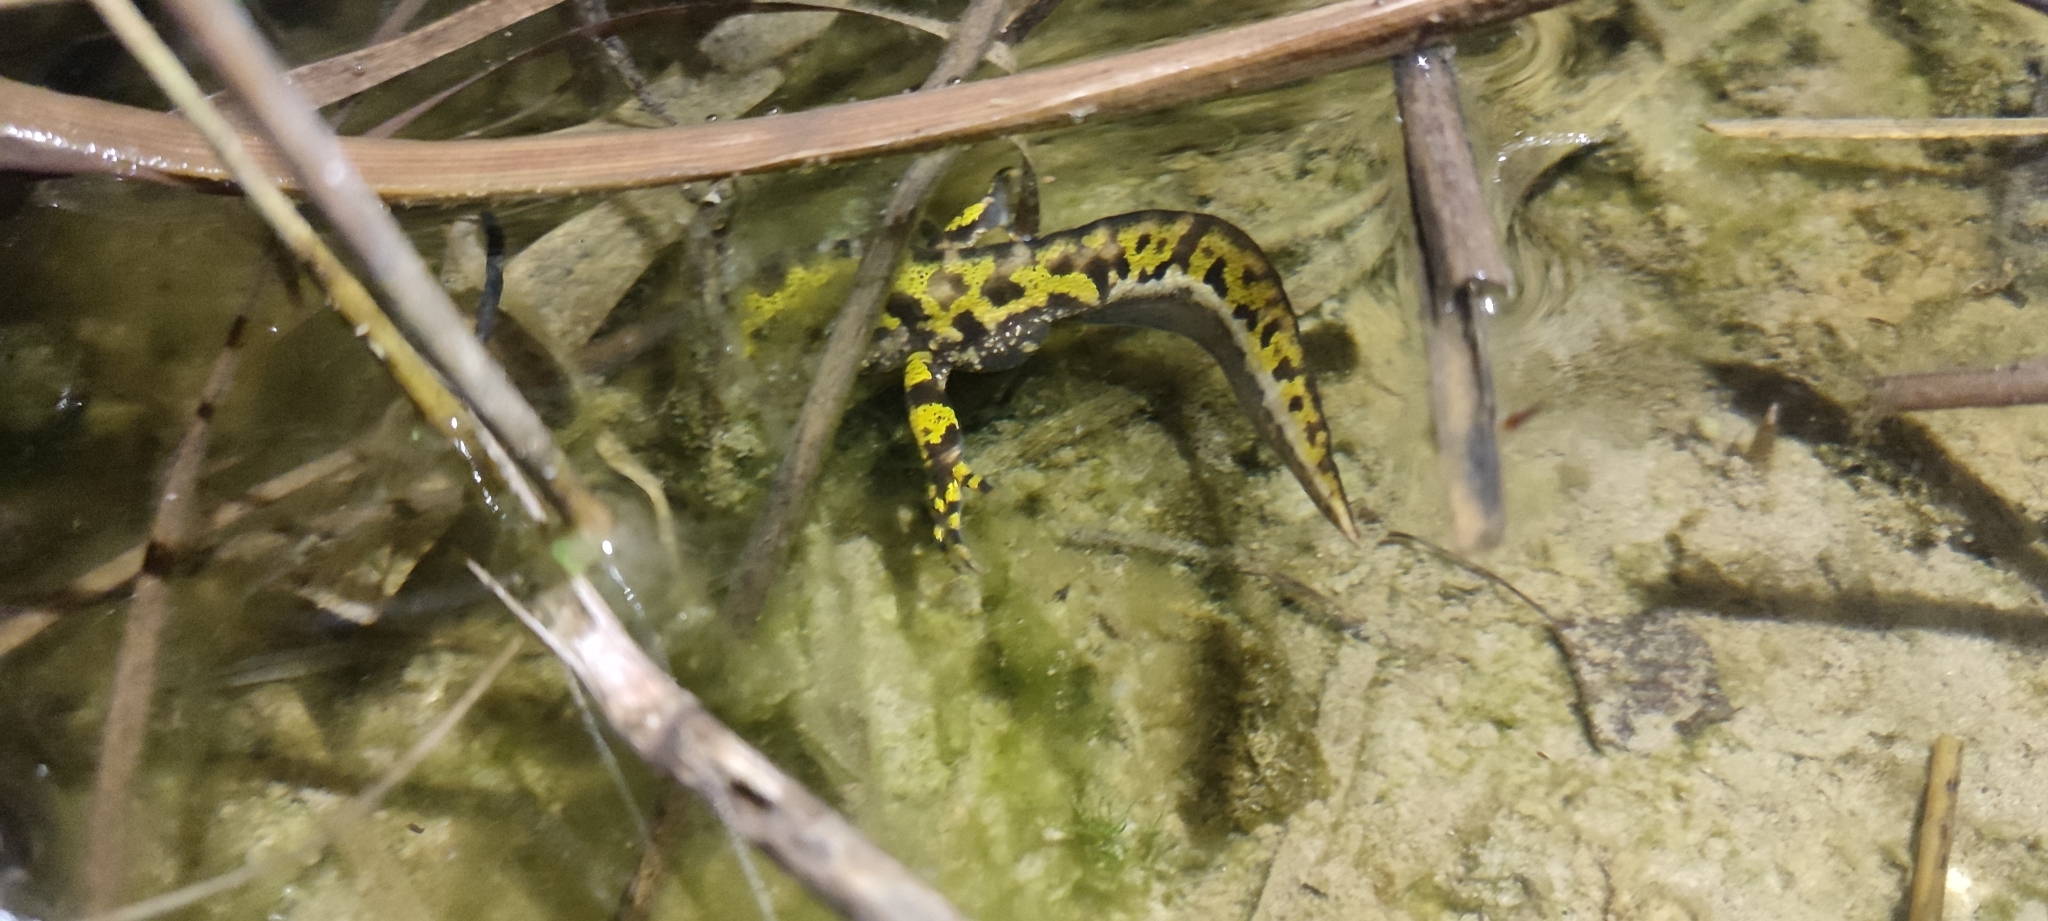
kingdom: Animalia
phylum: Chordata
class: Amphibia
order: Caudata
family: Salamandridae
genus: Triturus
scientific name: Triturus marmoratus
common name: Marbled newt
